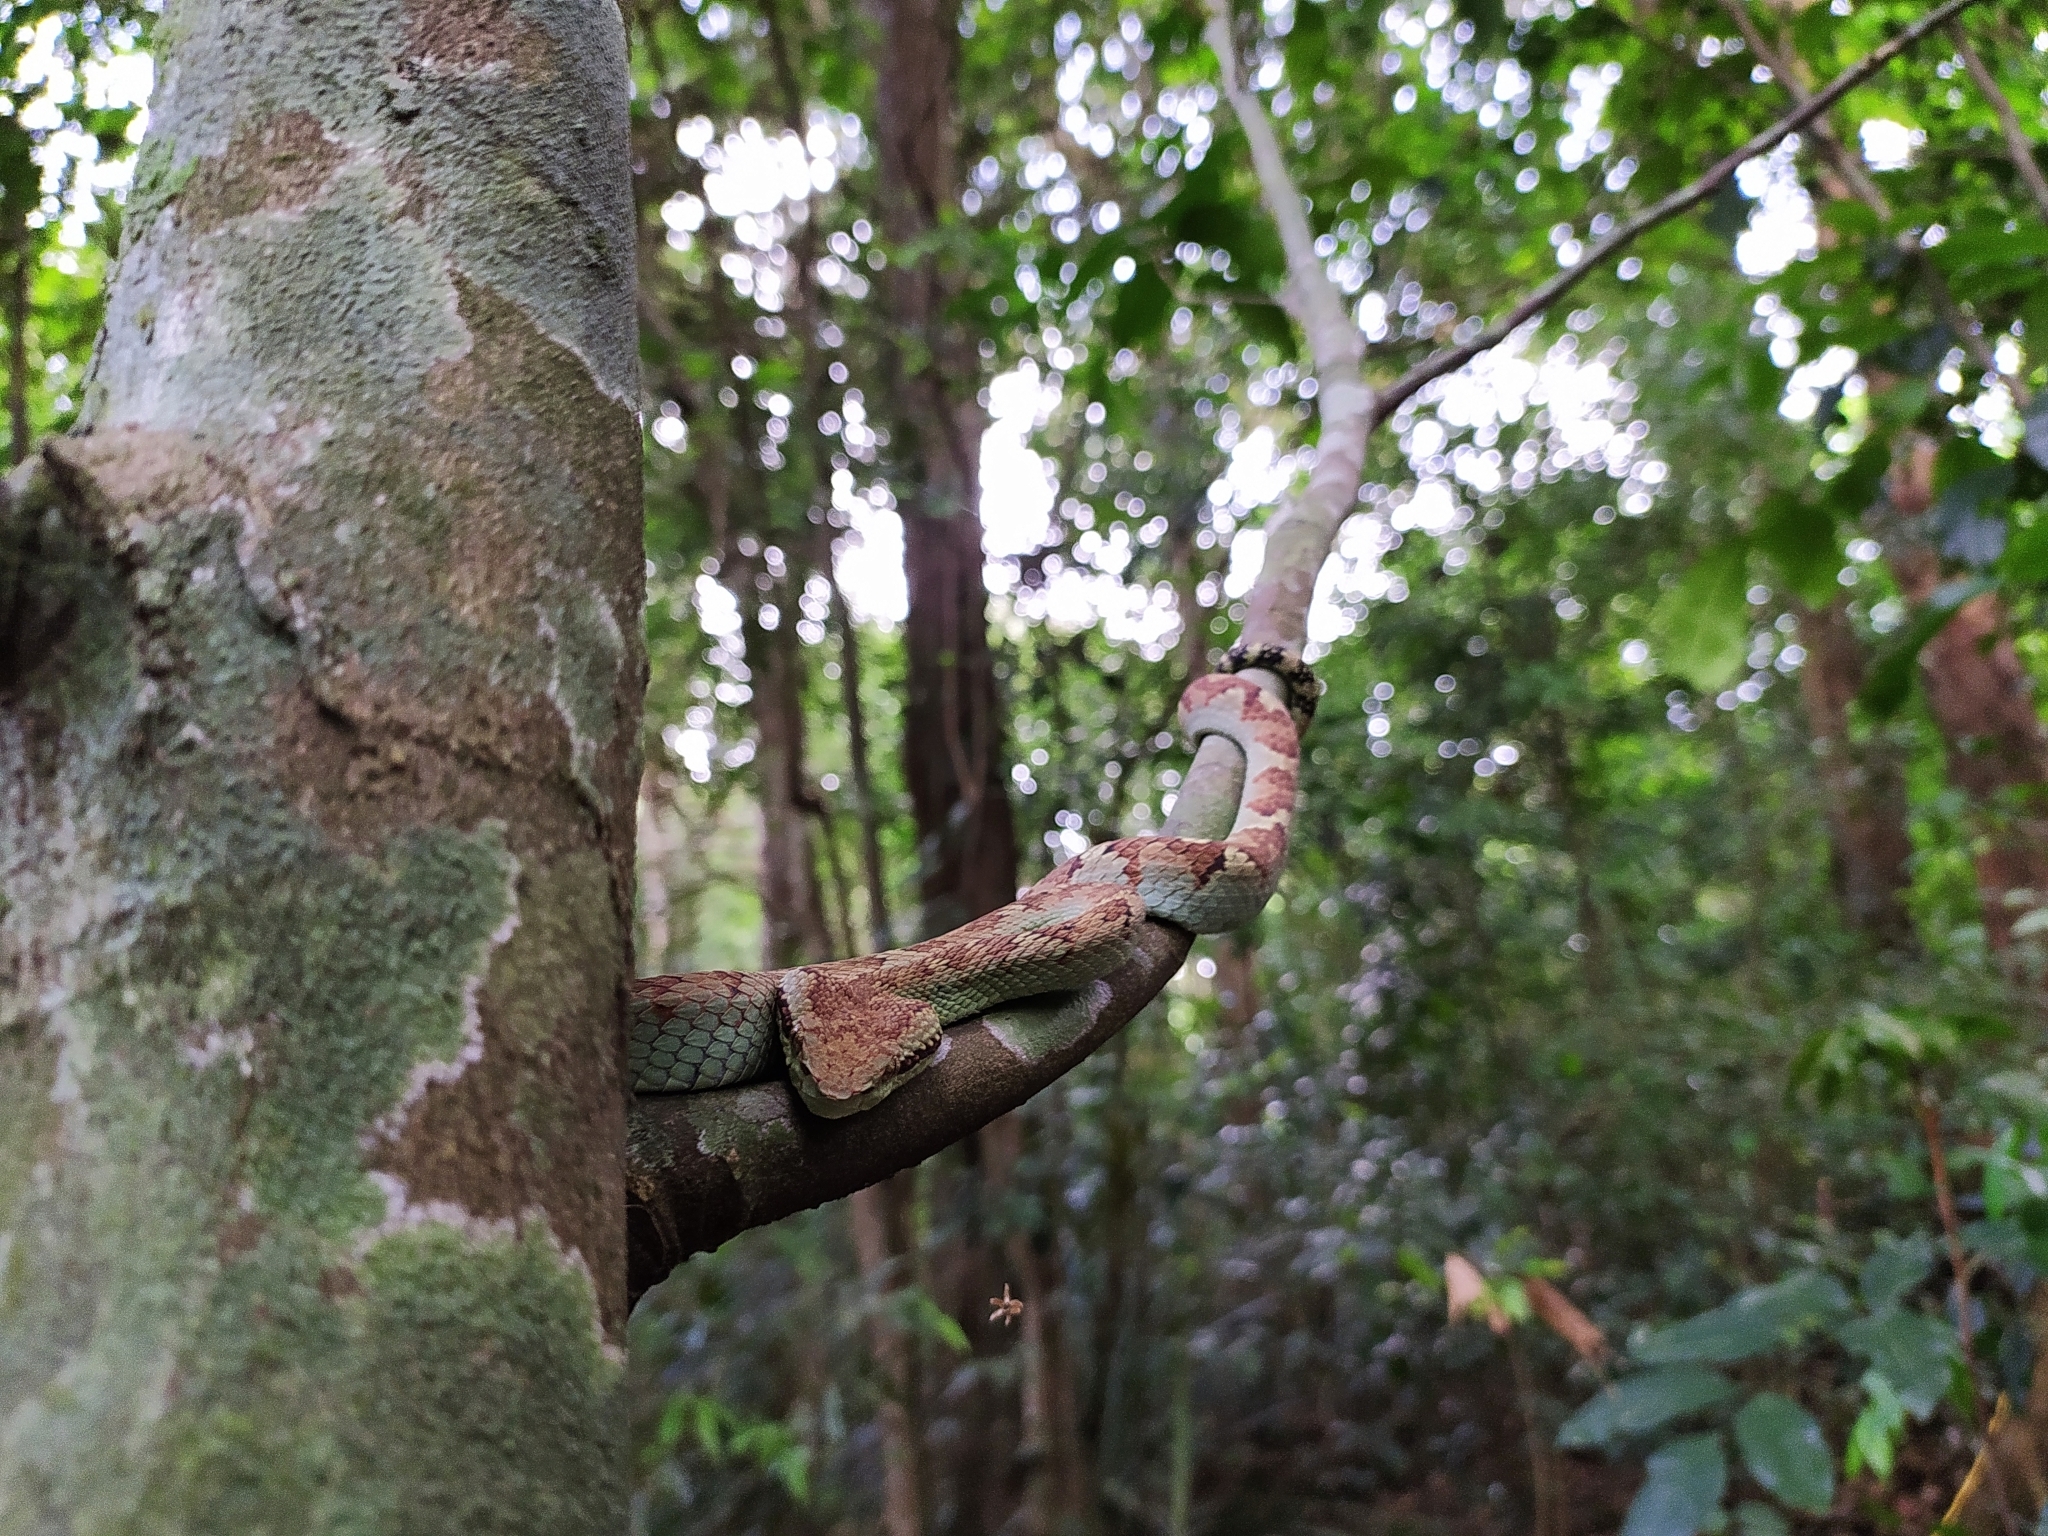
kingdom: Animalia
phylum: Chordata
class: Squamata
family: Viperidae
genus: Craspedocephalus
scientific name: Craspedocephalus malabaricus
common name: Malabarian pit viper
